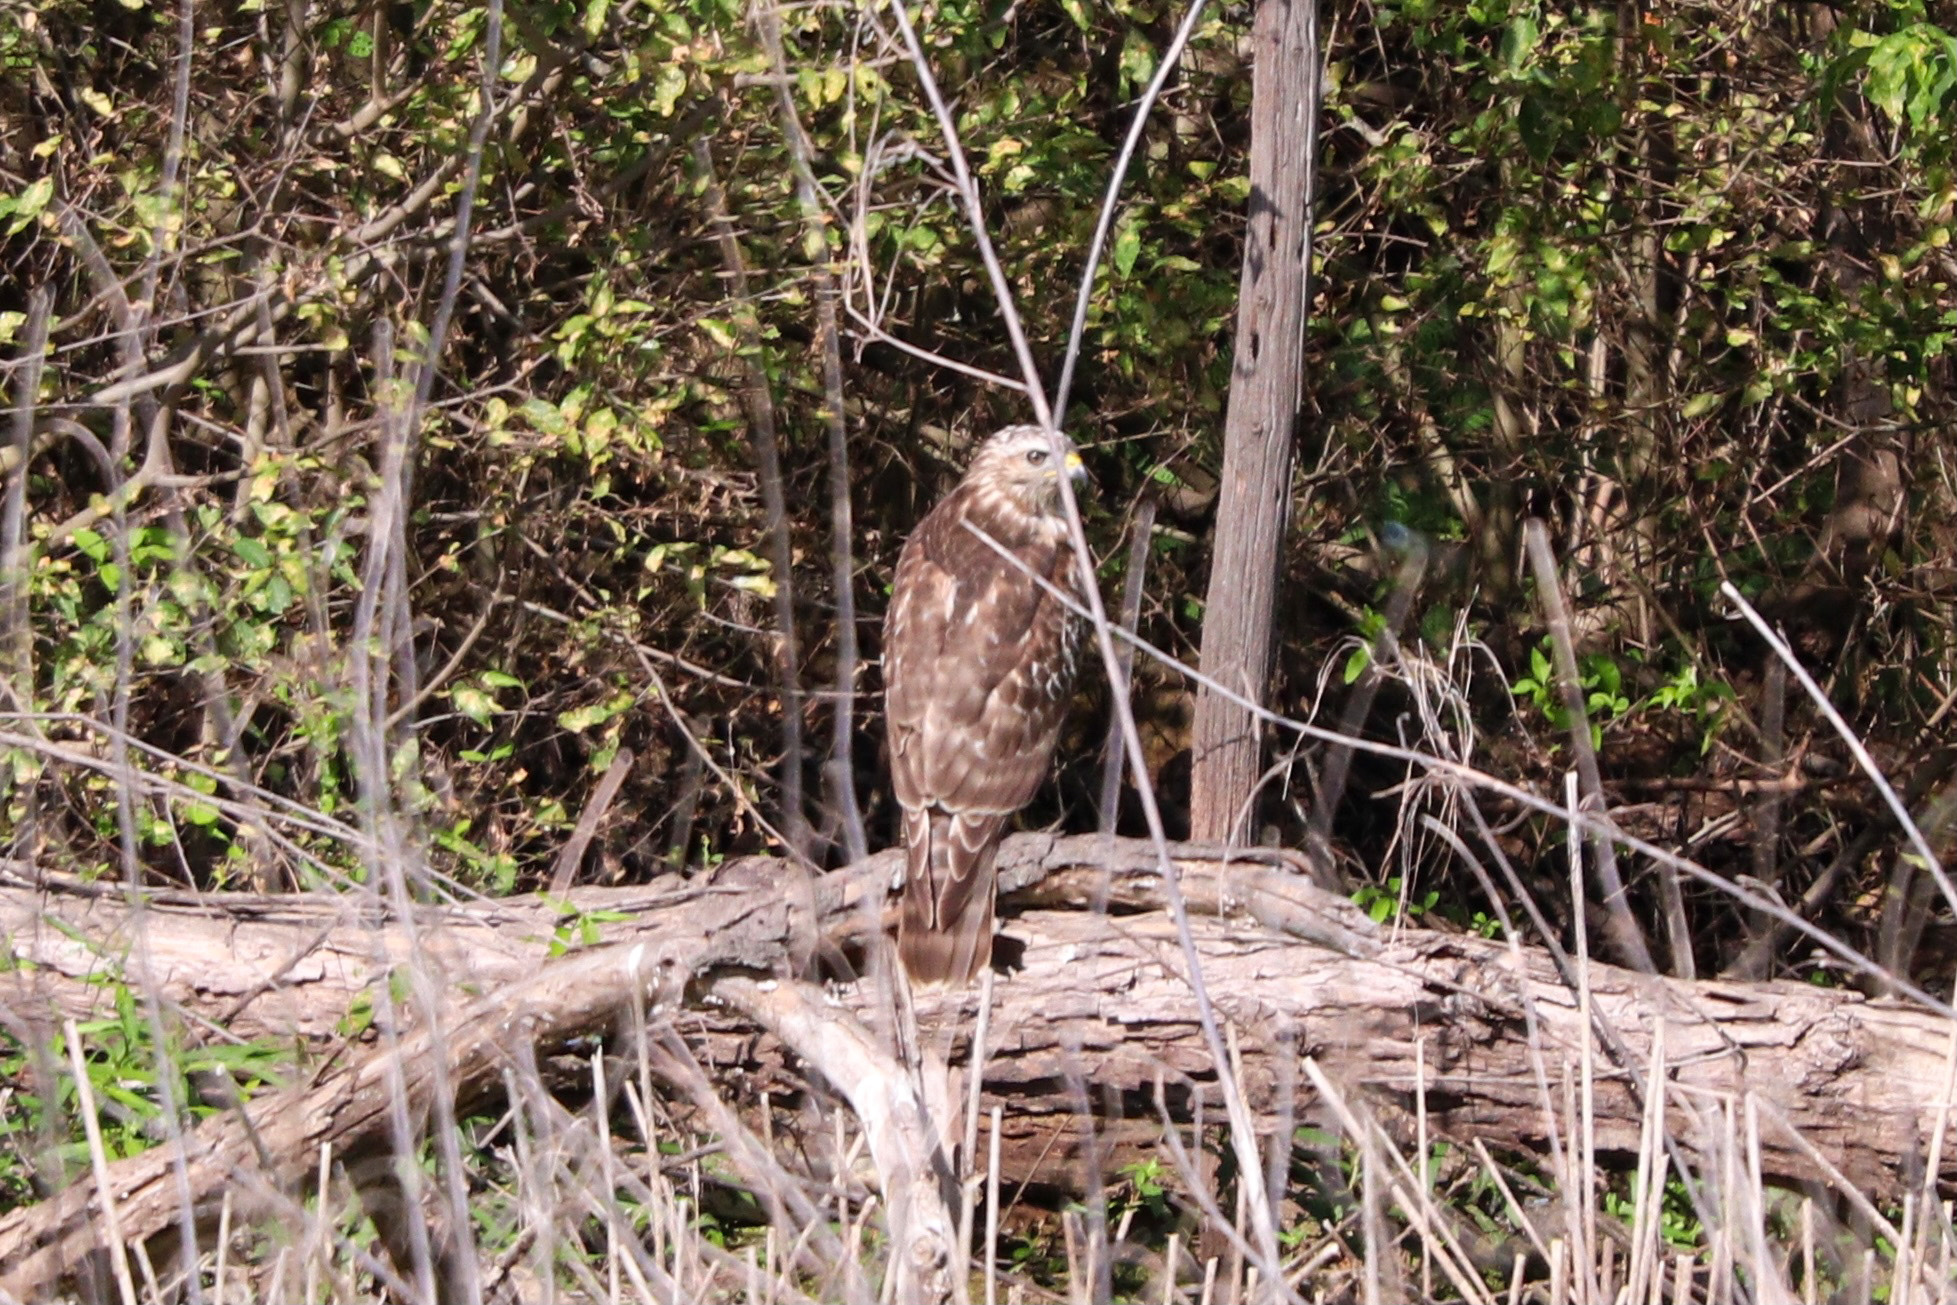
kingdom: Animalia
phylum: Chordata
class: Aves
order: Accipitriformes
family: Accipitridae
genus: Buteo
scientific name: Buteo lineatus
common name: Red-shouldered hawk
